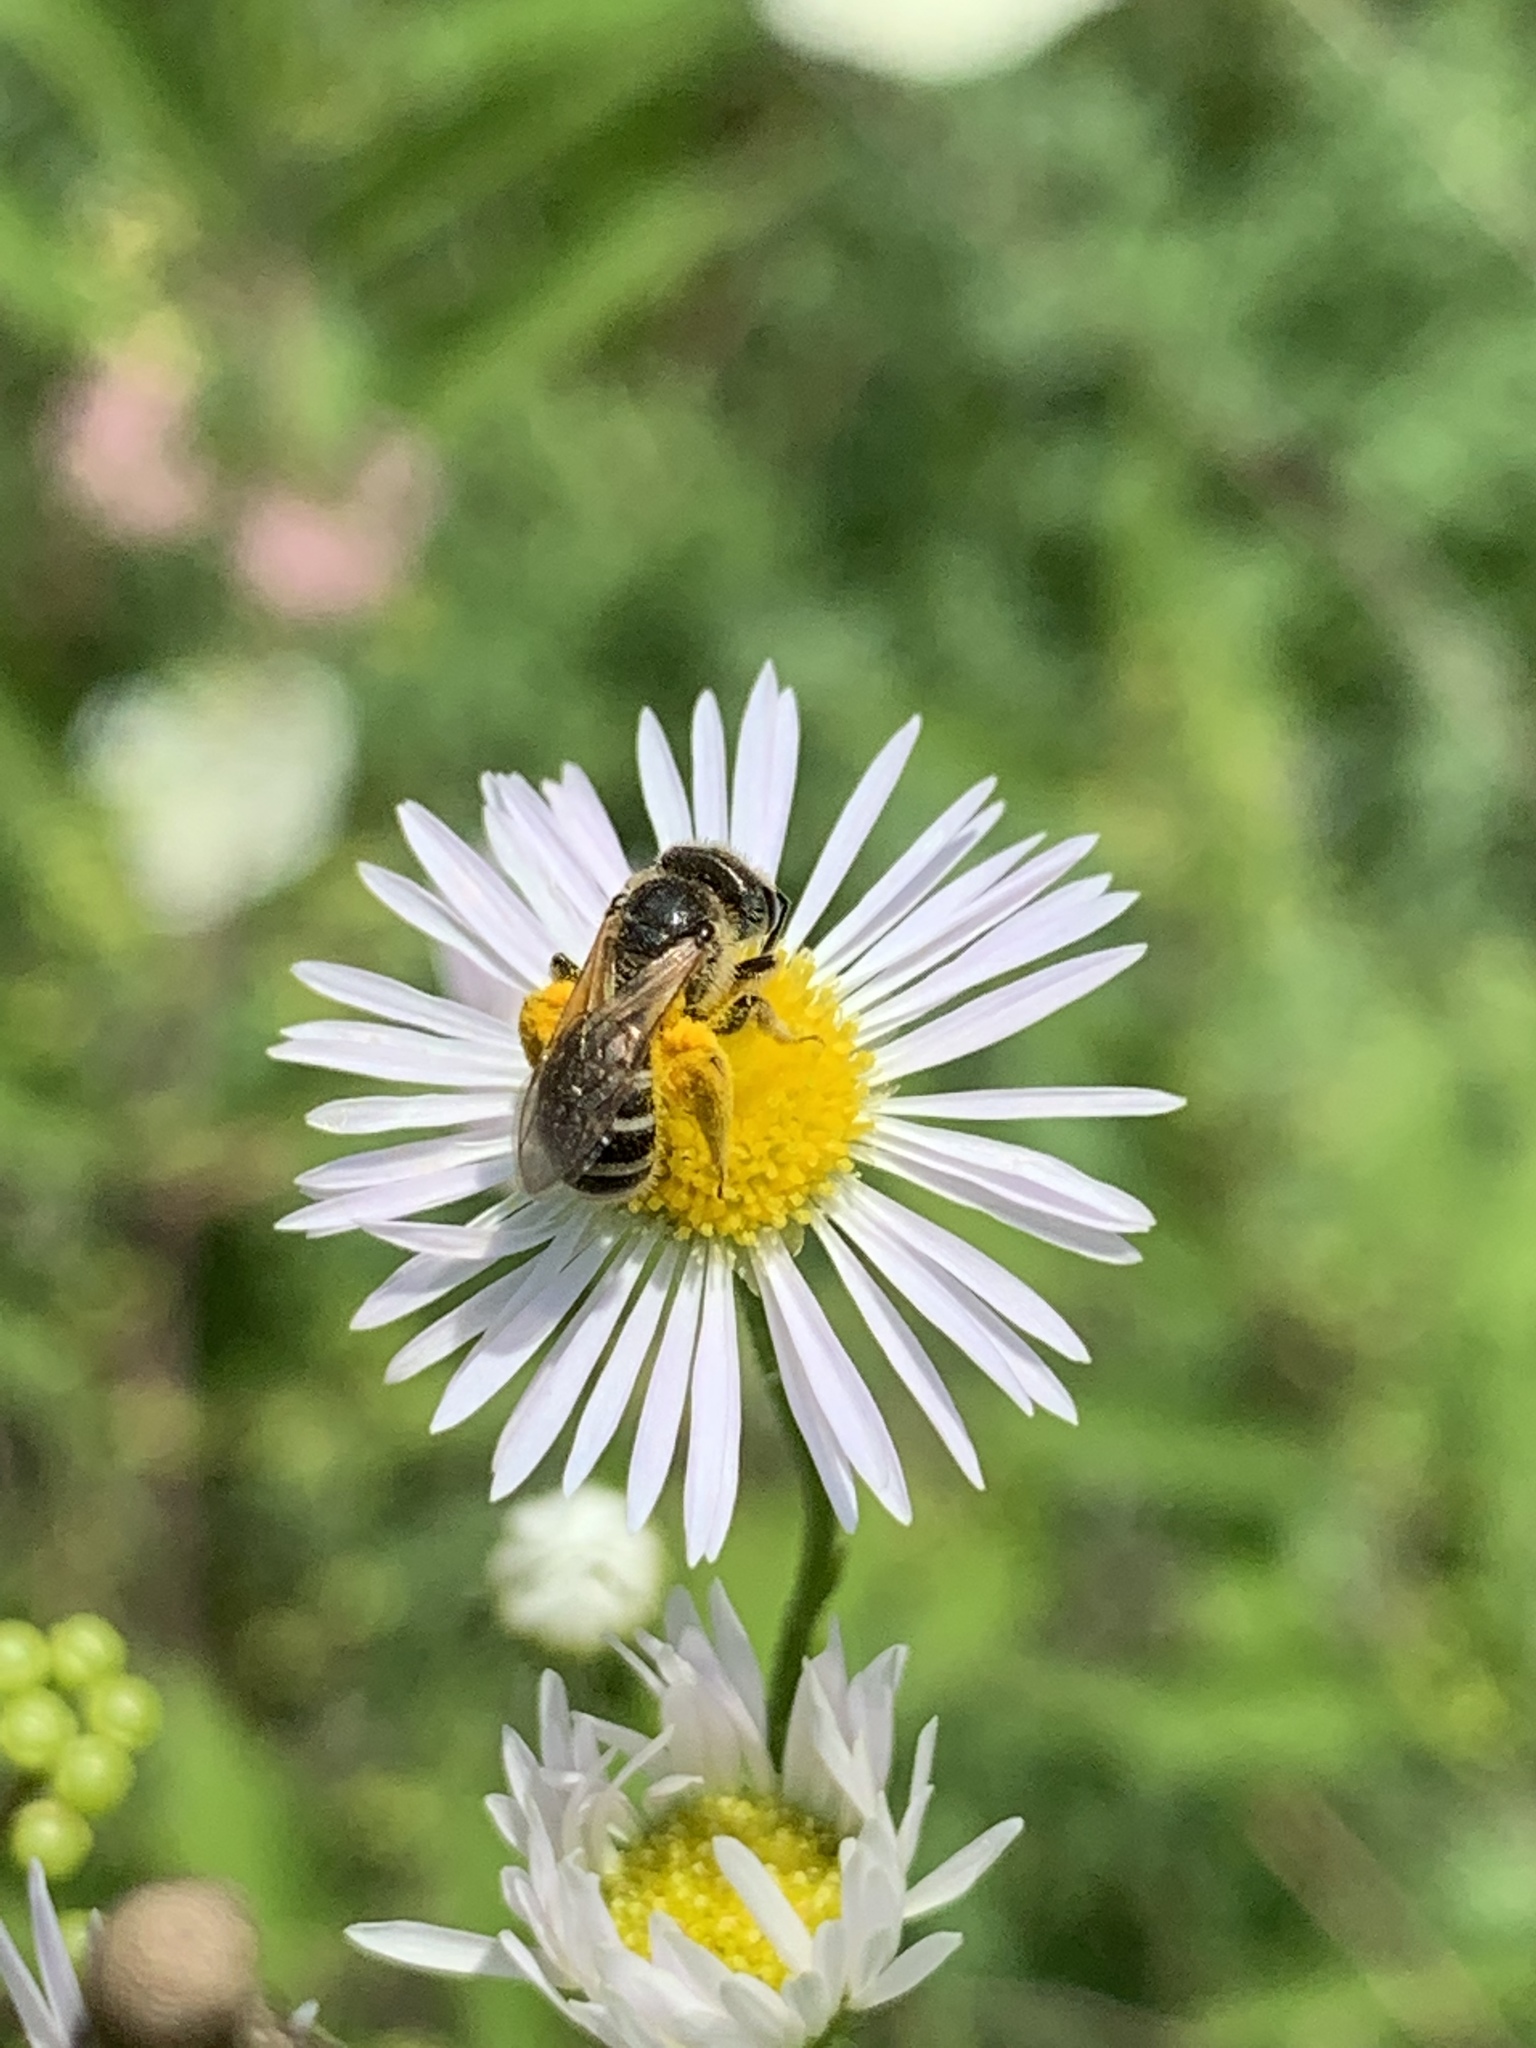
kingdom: Animalia
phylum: Arthropoda
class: Insecta
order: Hymenoptera
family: Halictidae
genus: Halictus
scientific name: Halictus ligatus
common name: Ligated furrow bee
